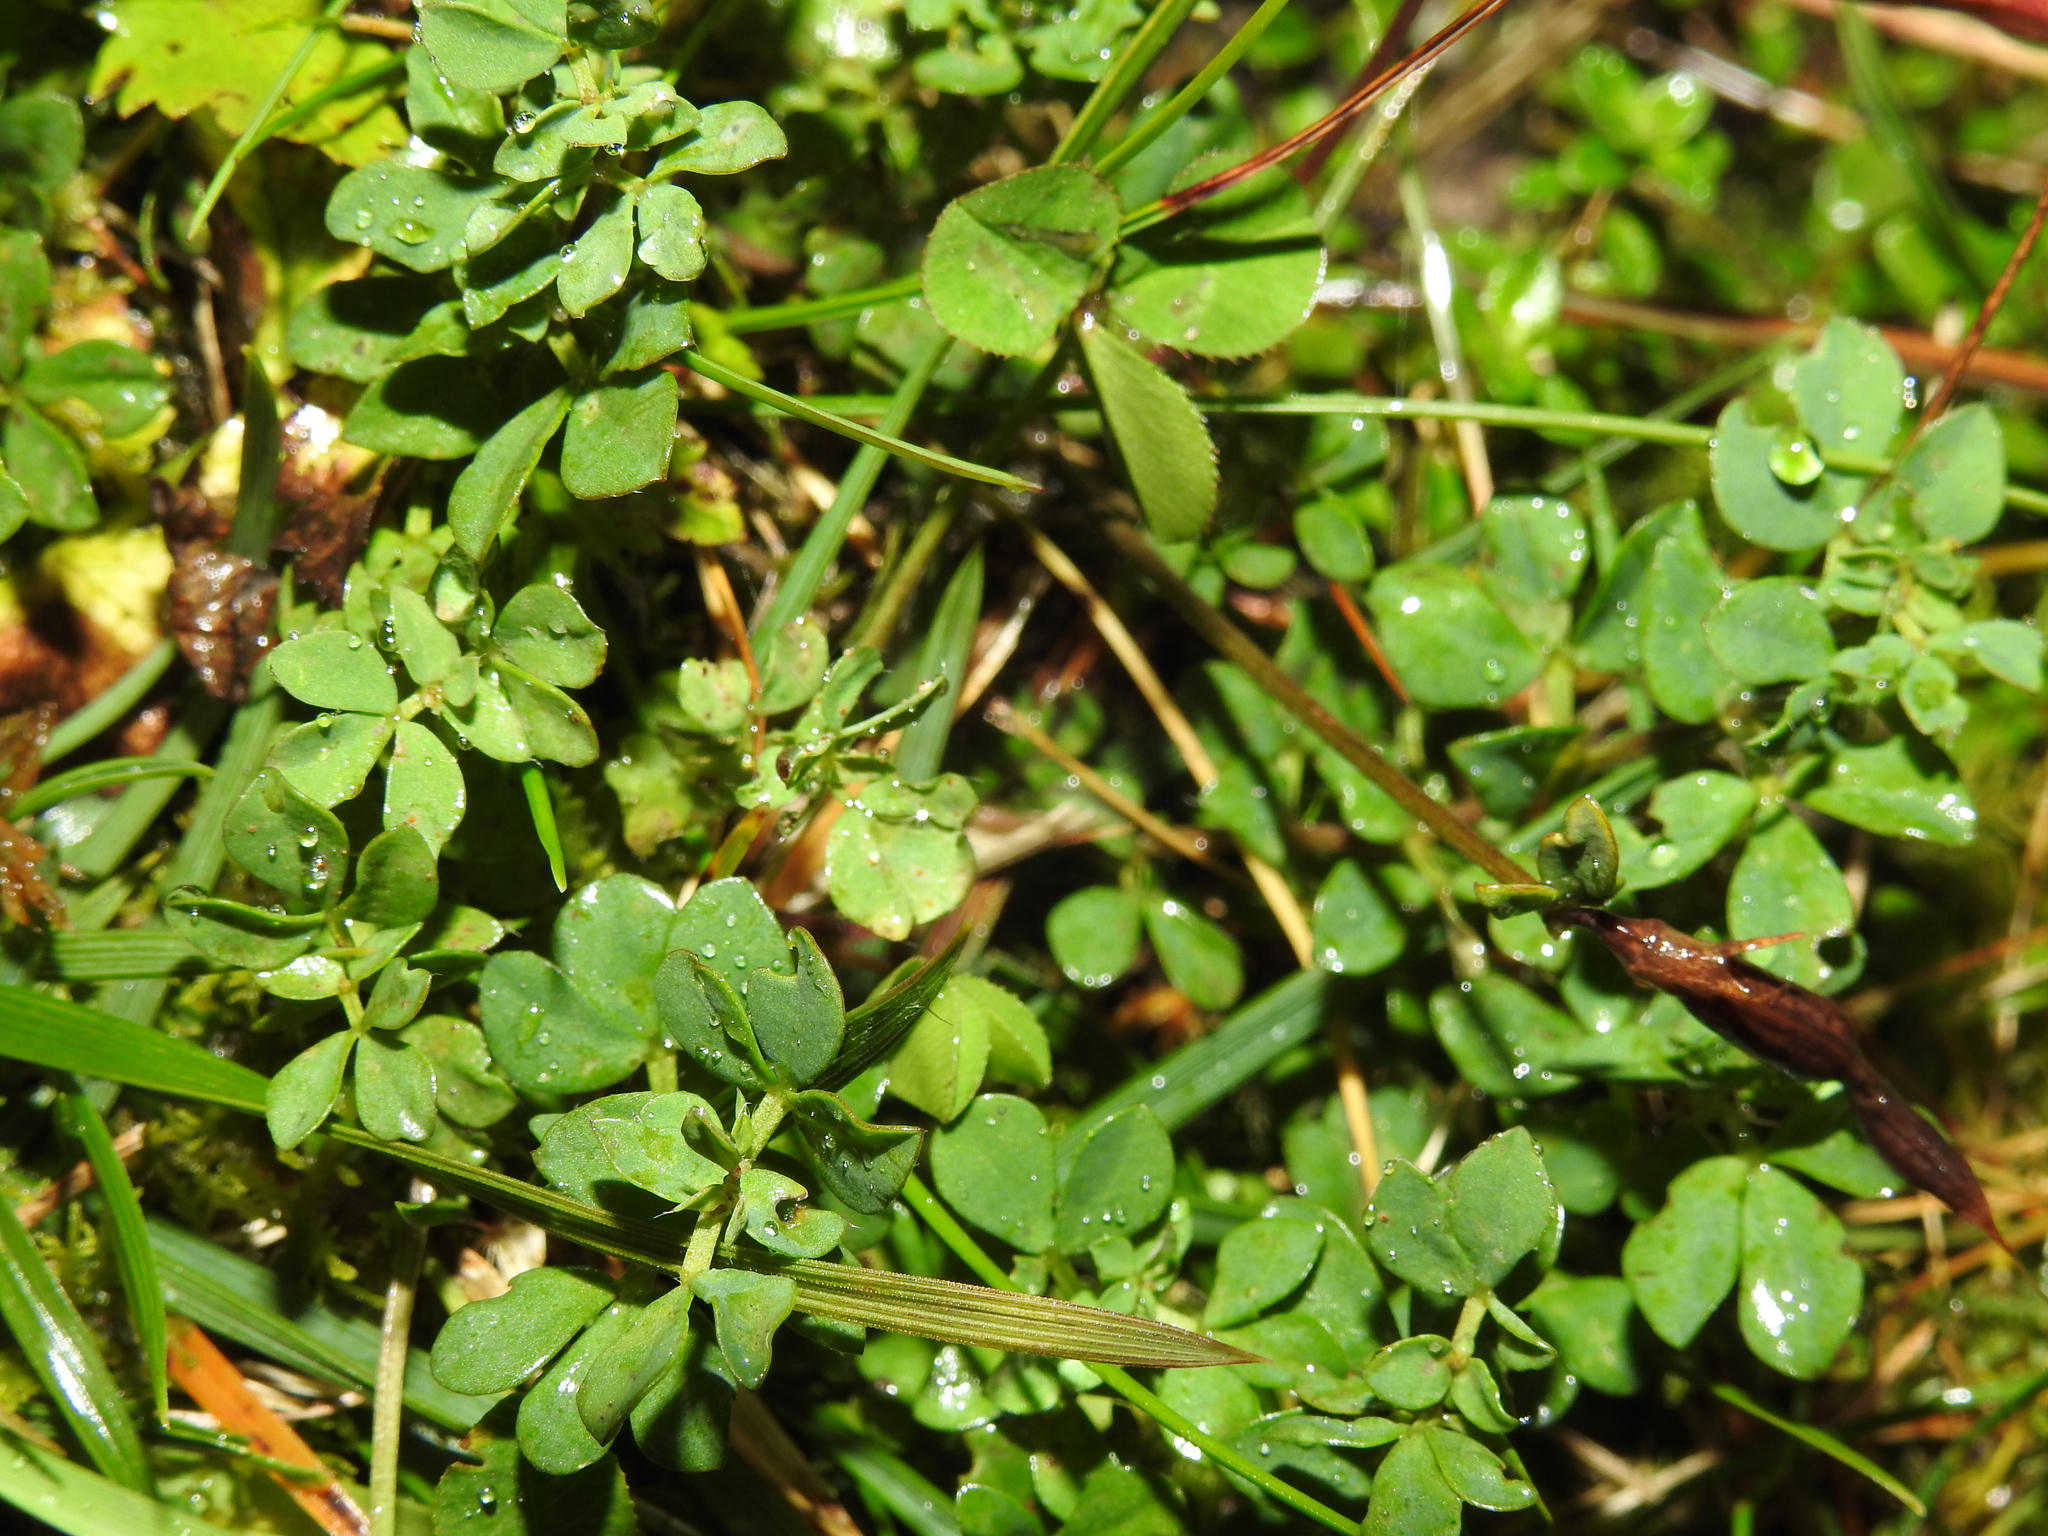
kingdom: Plantae
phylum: Tracheophyta
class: Magnoliopsida
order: Fabales
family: Fabaceae
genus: Lotus
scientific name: Lotus corniculatus
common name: Common bird's-foot-trefoil
